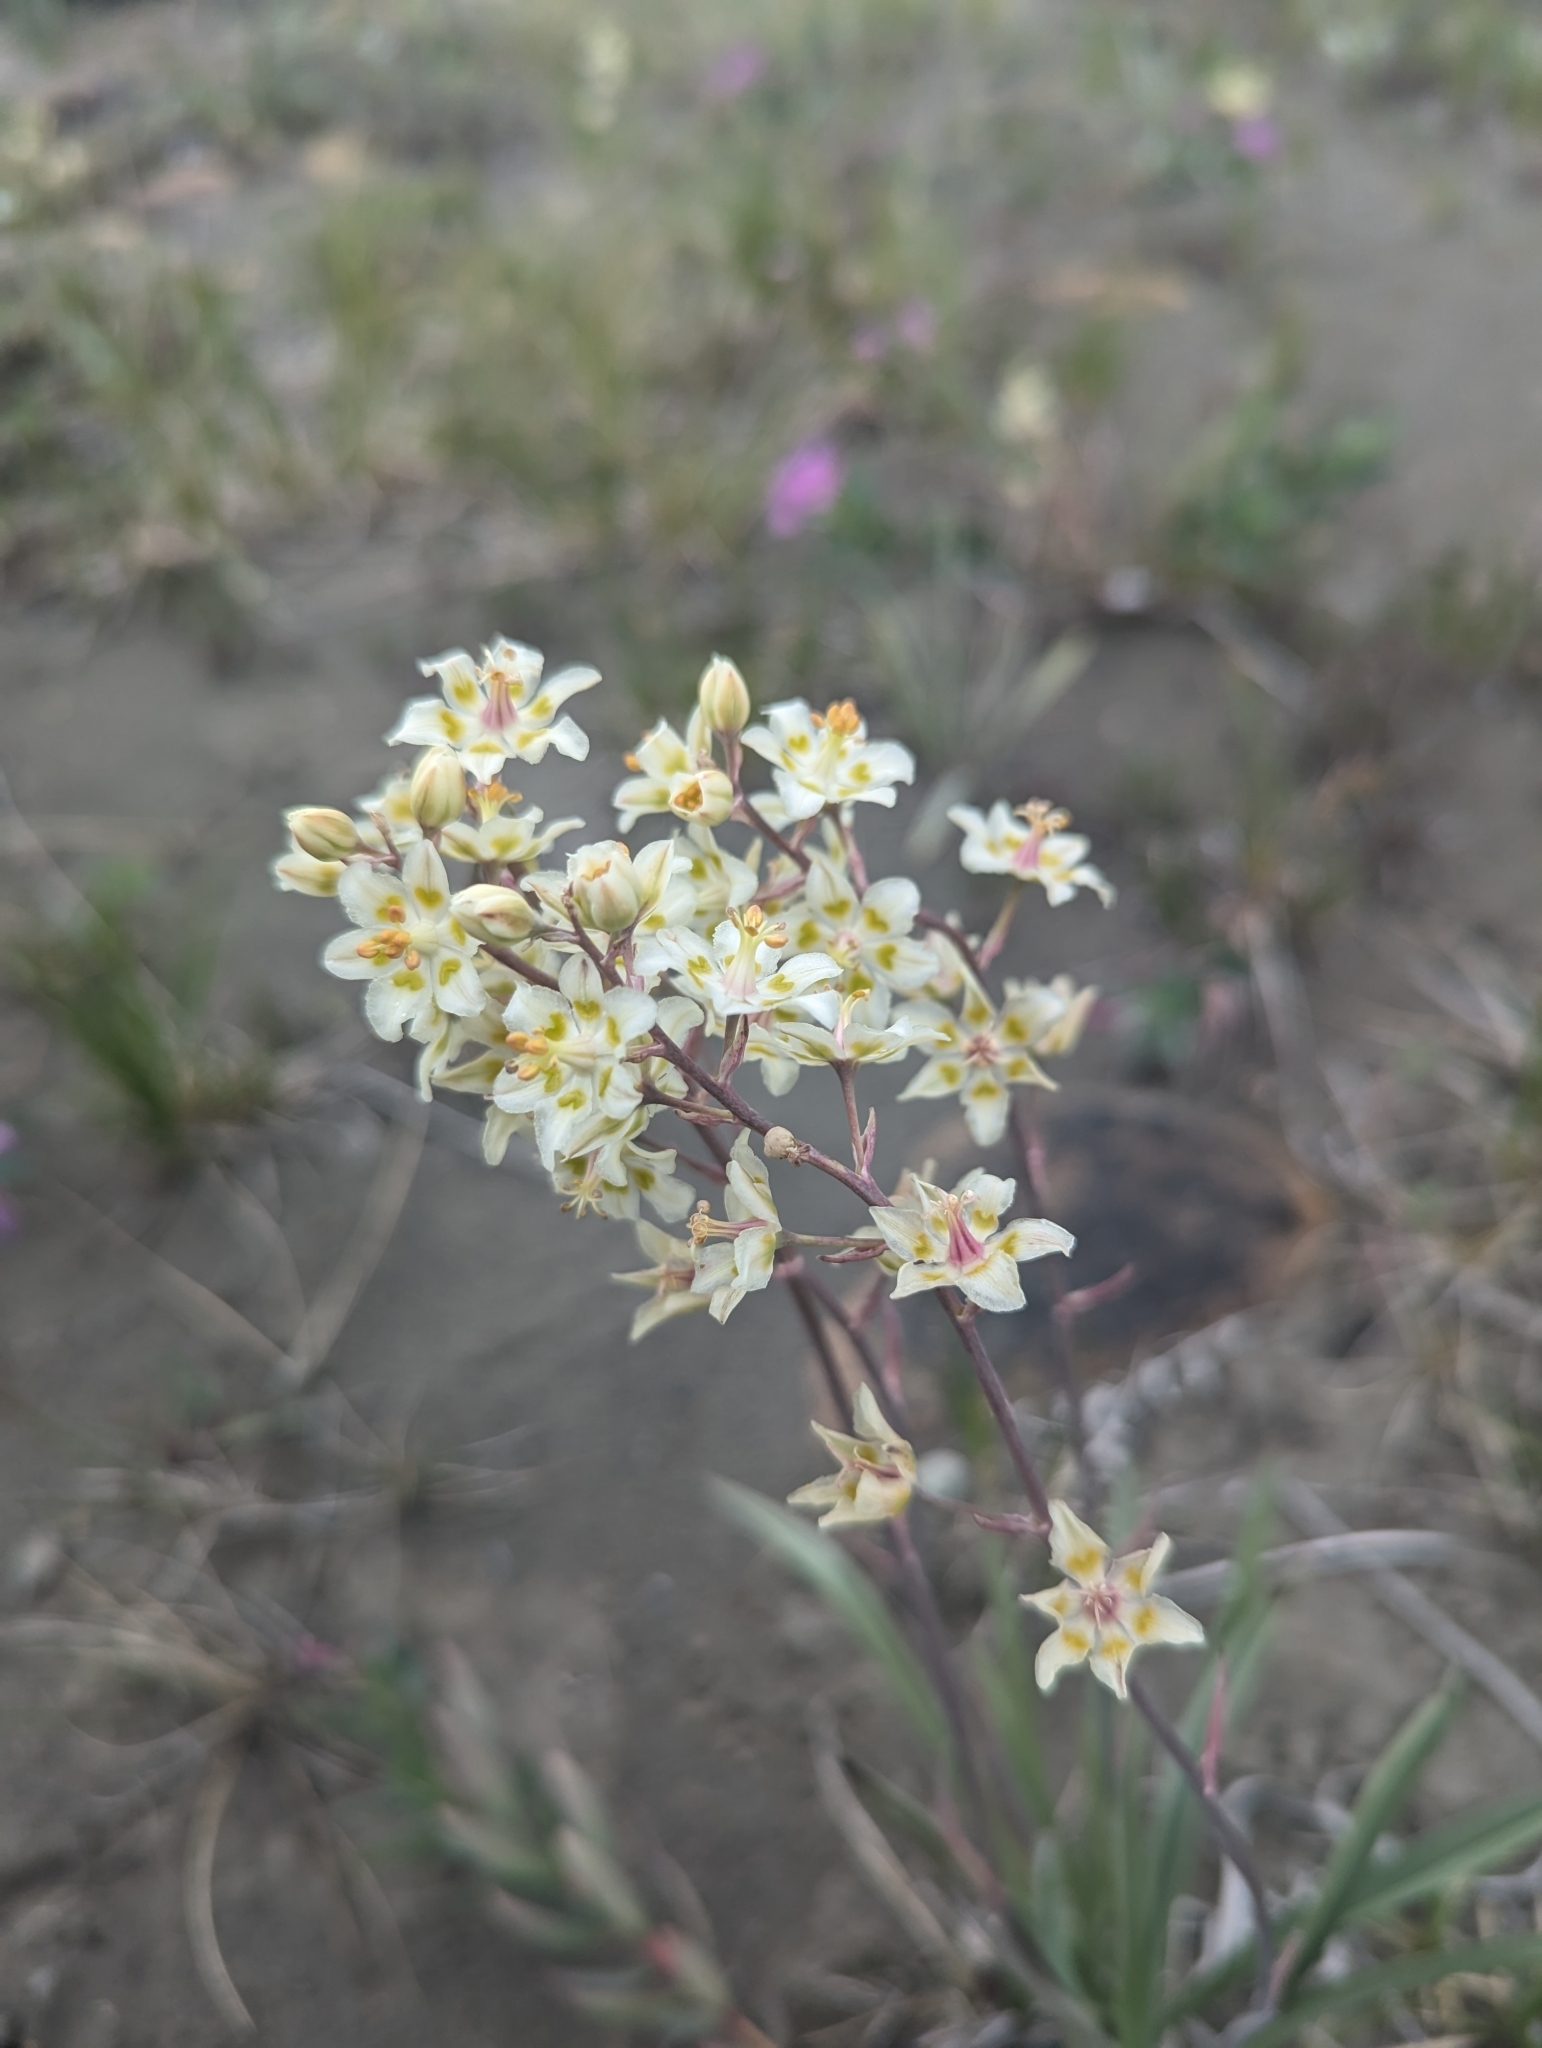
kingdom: Plantae
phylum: Tracheophyta
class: Liliopsida
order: Liliales
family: Melanthiaceae
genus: Anticlea
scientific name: Anticlea elegans
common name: Mountain death camas
